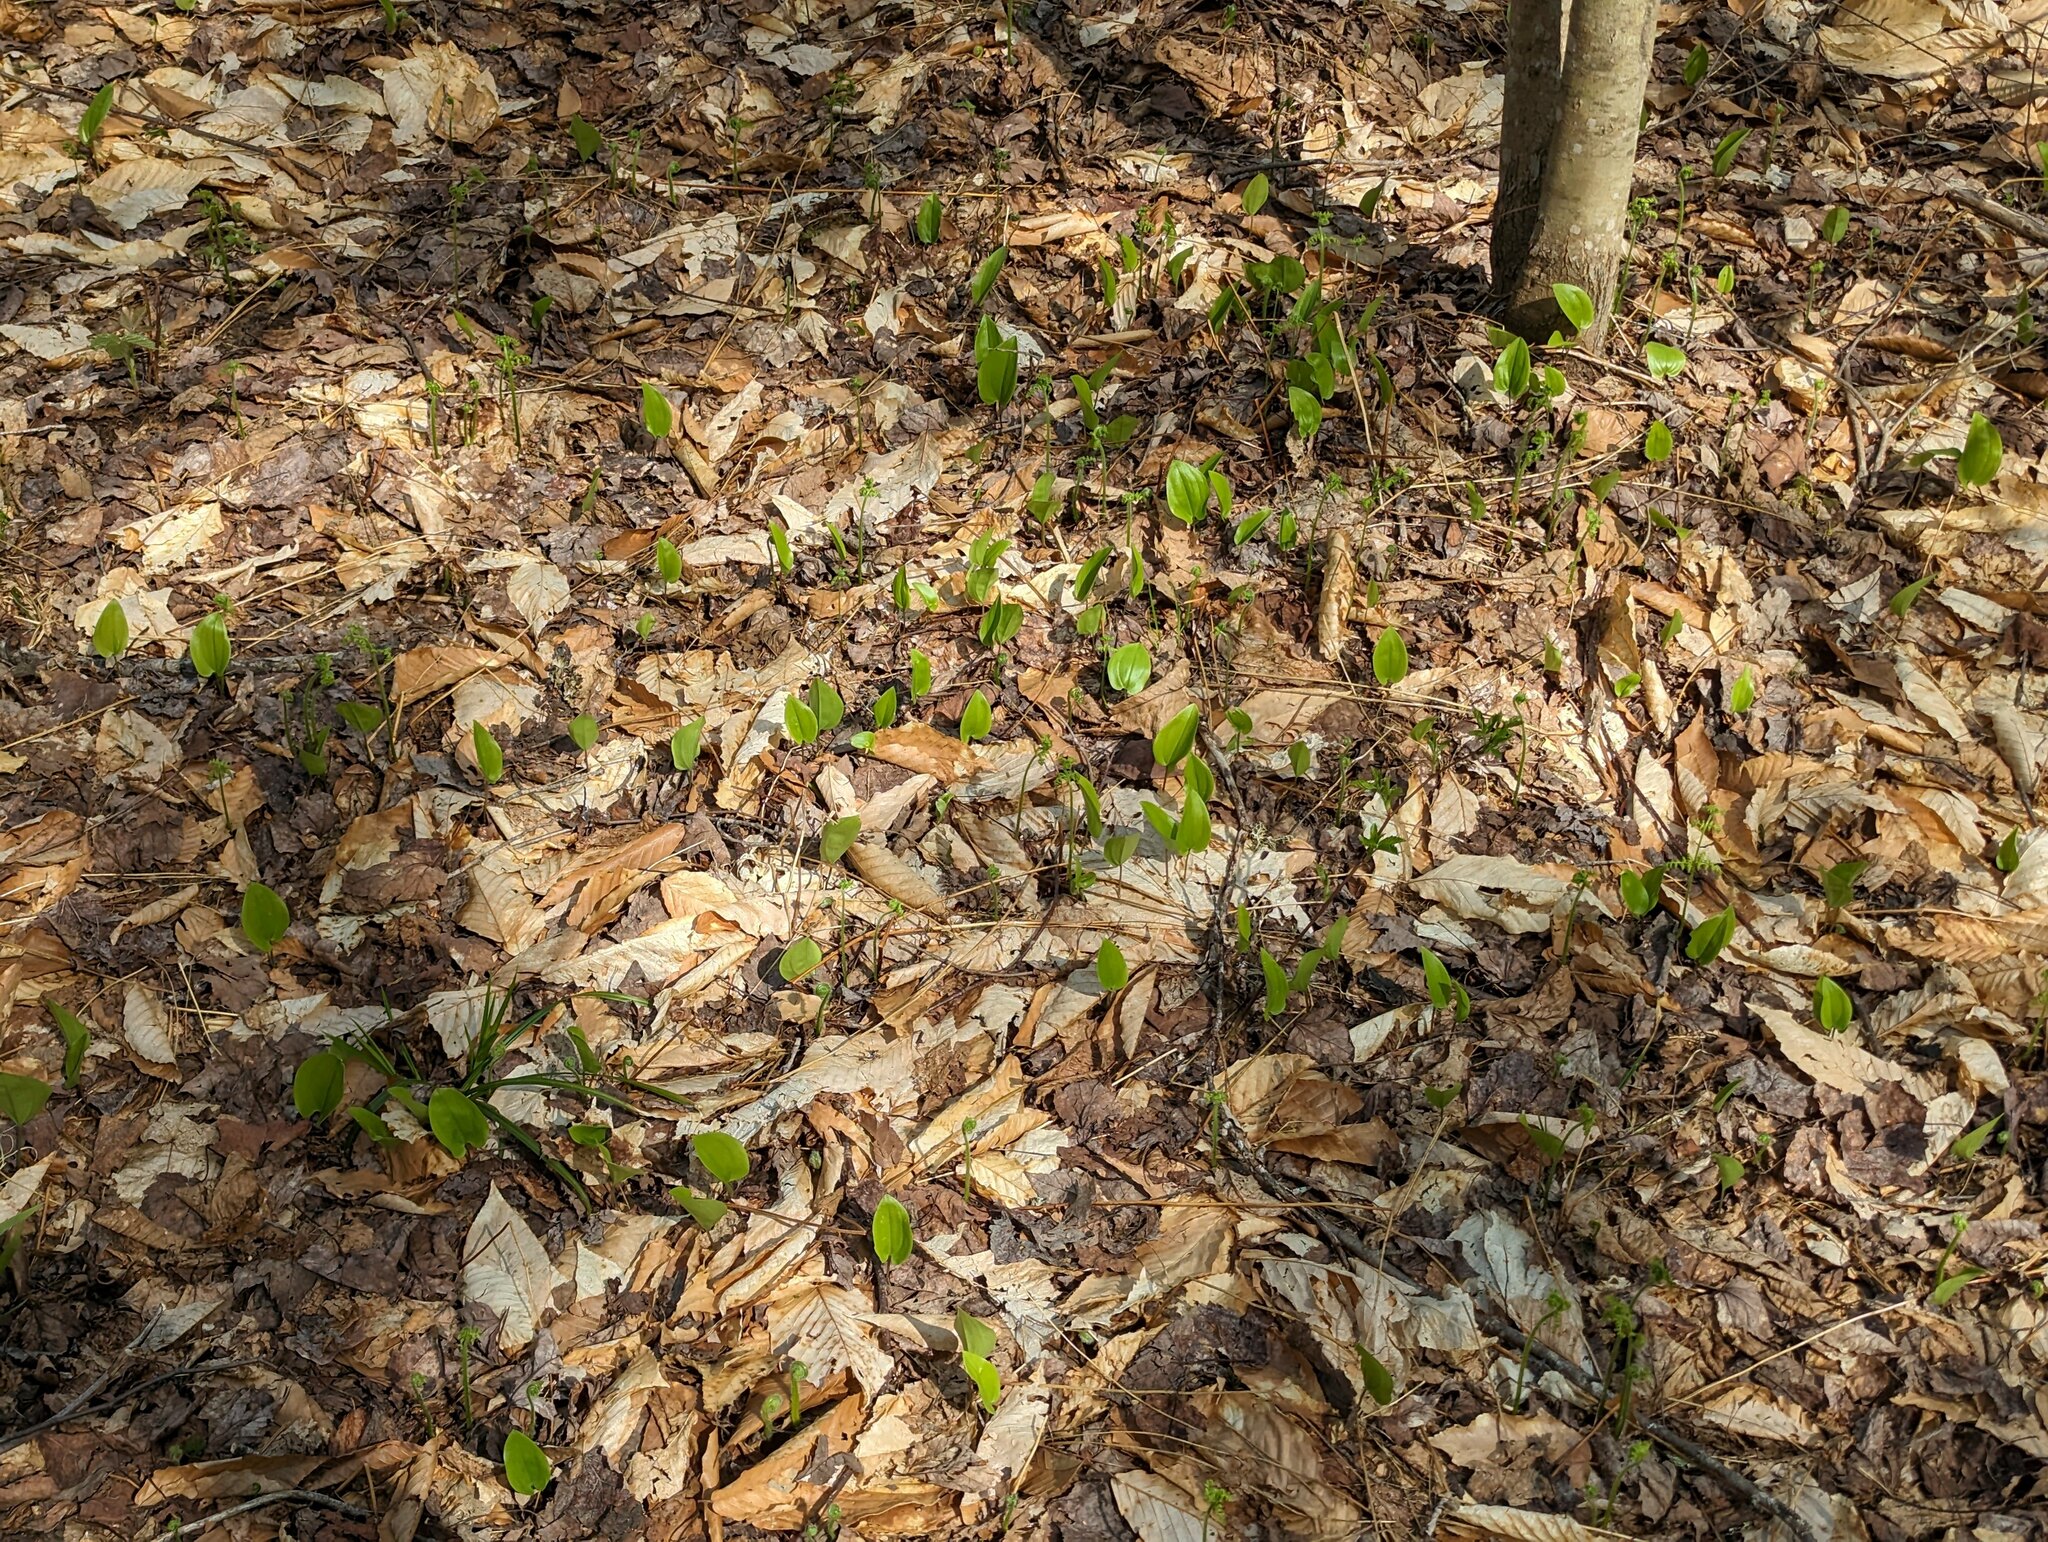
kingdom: Plantae
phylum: Tracheophyta
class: Liliopsida
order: Asparagales
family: Asparagaceae
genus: Maianthemum
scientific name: Maianthemum canadense
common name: False lily-of-the-valley
